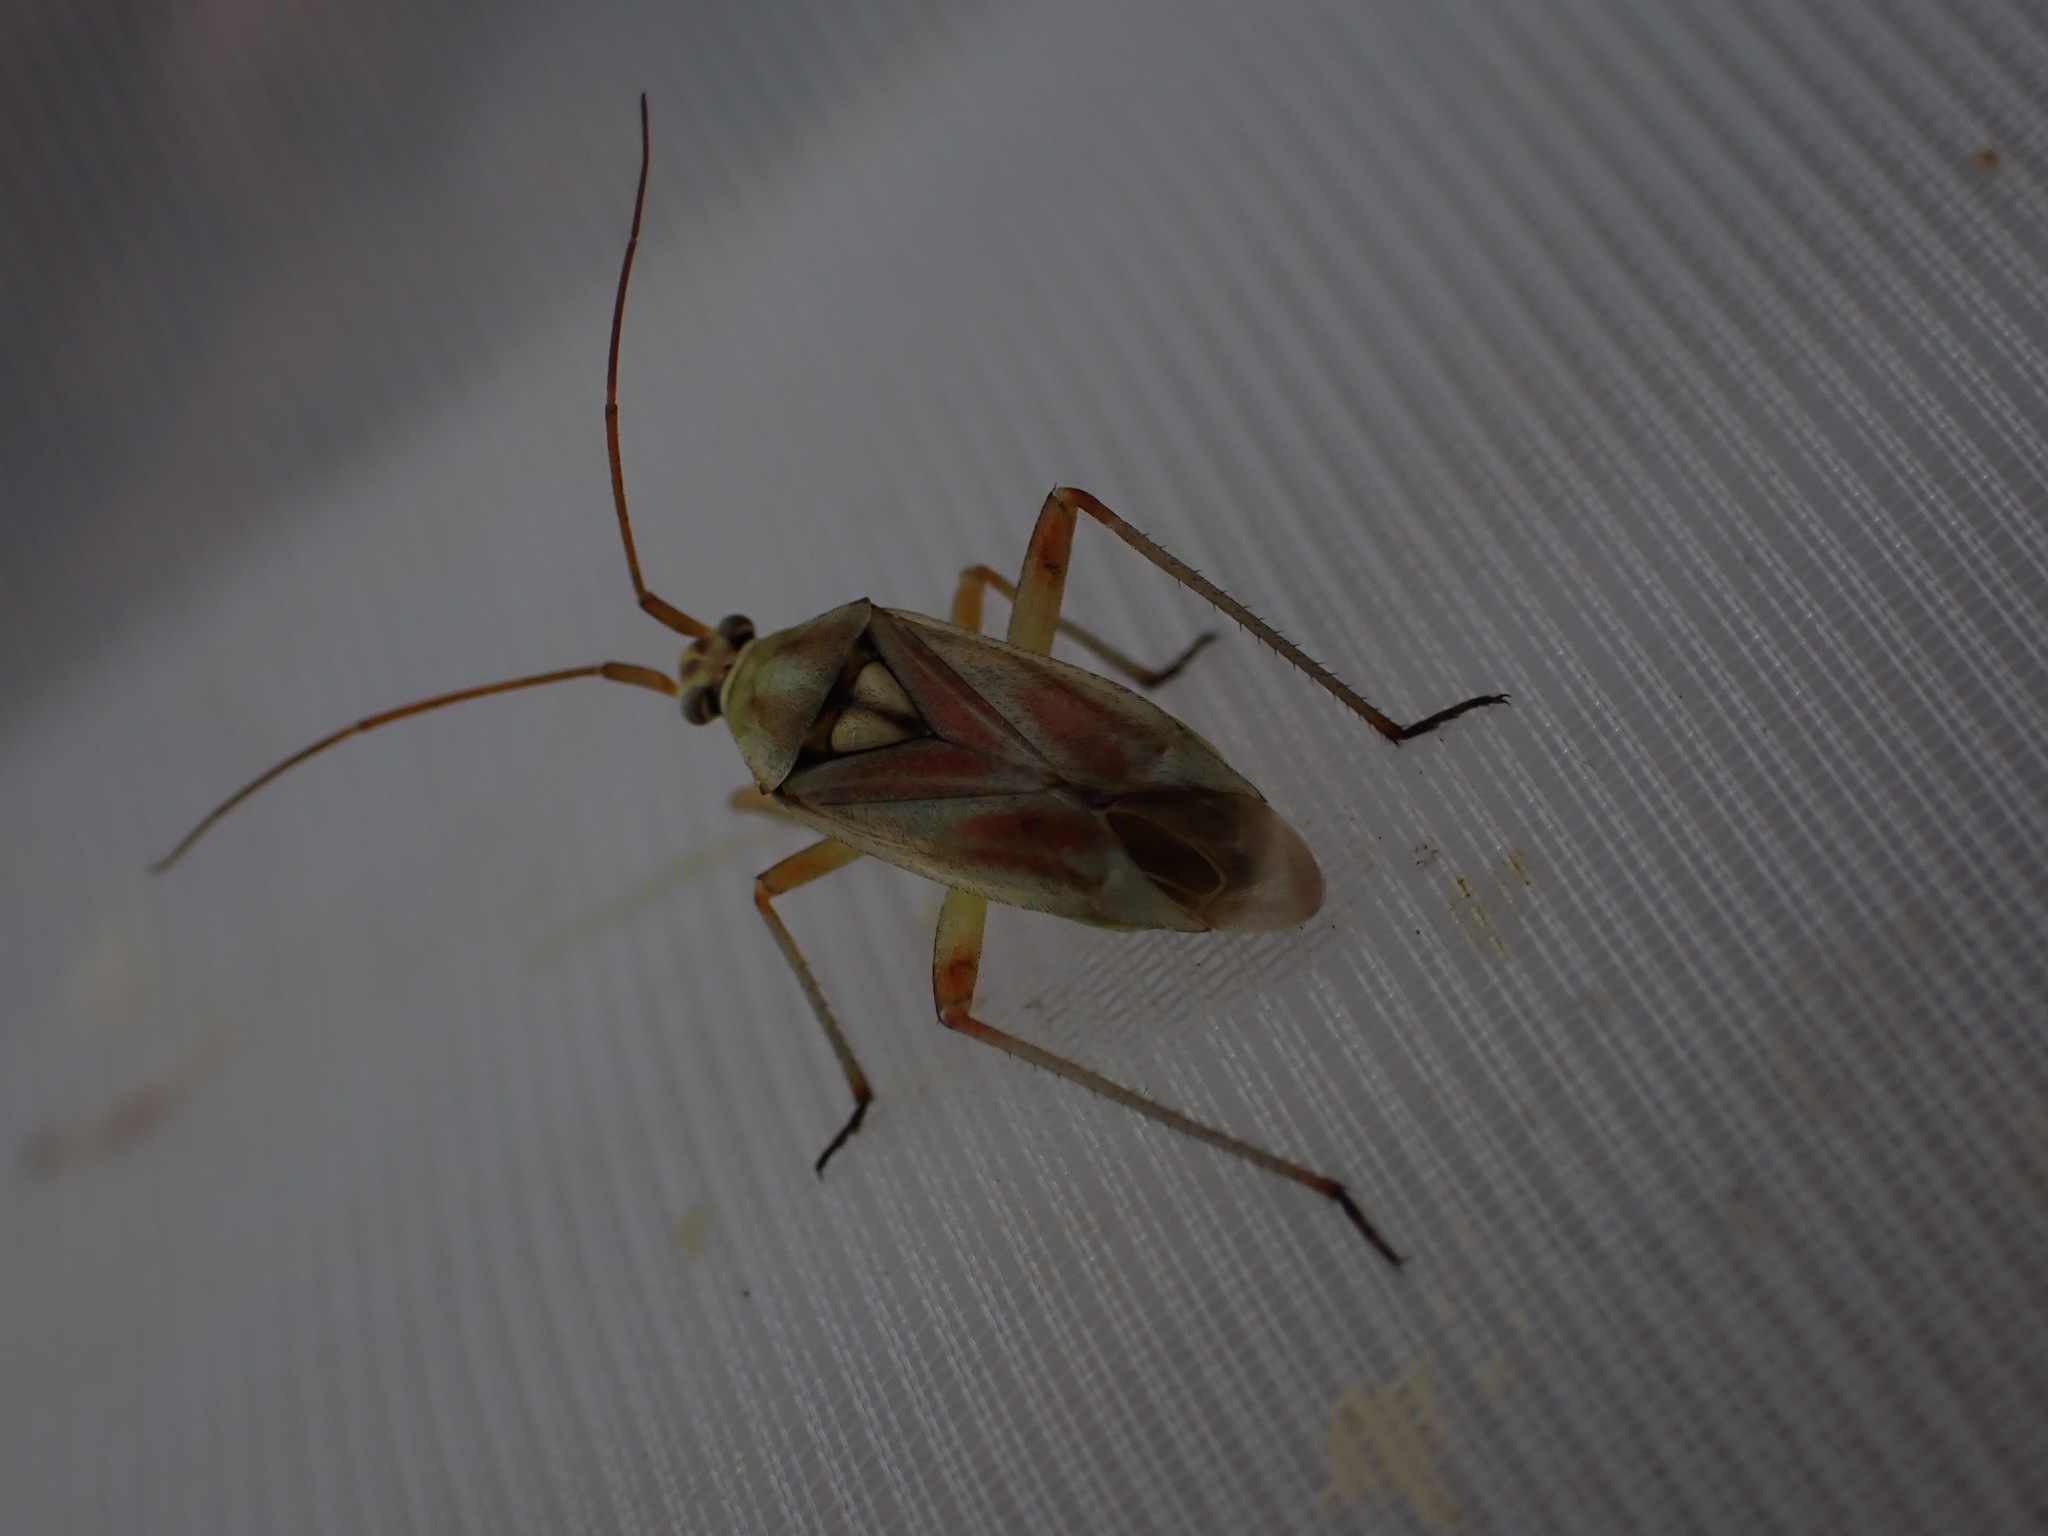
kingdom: Animalia
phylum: Arthropoda
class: Insecta
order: Hemiptera
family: Miridae
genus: Calocoris
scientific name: Calocoris roseomaculatus
